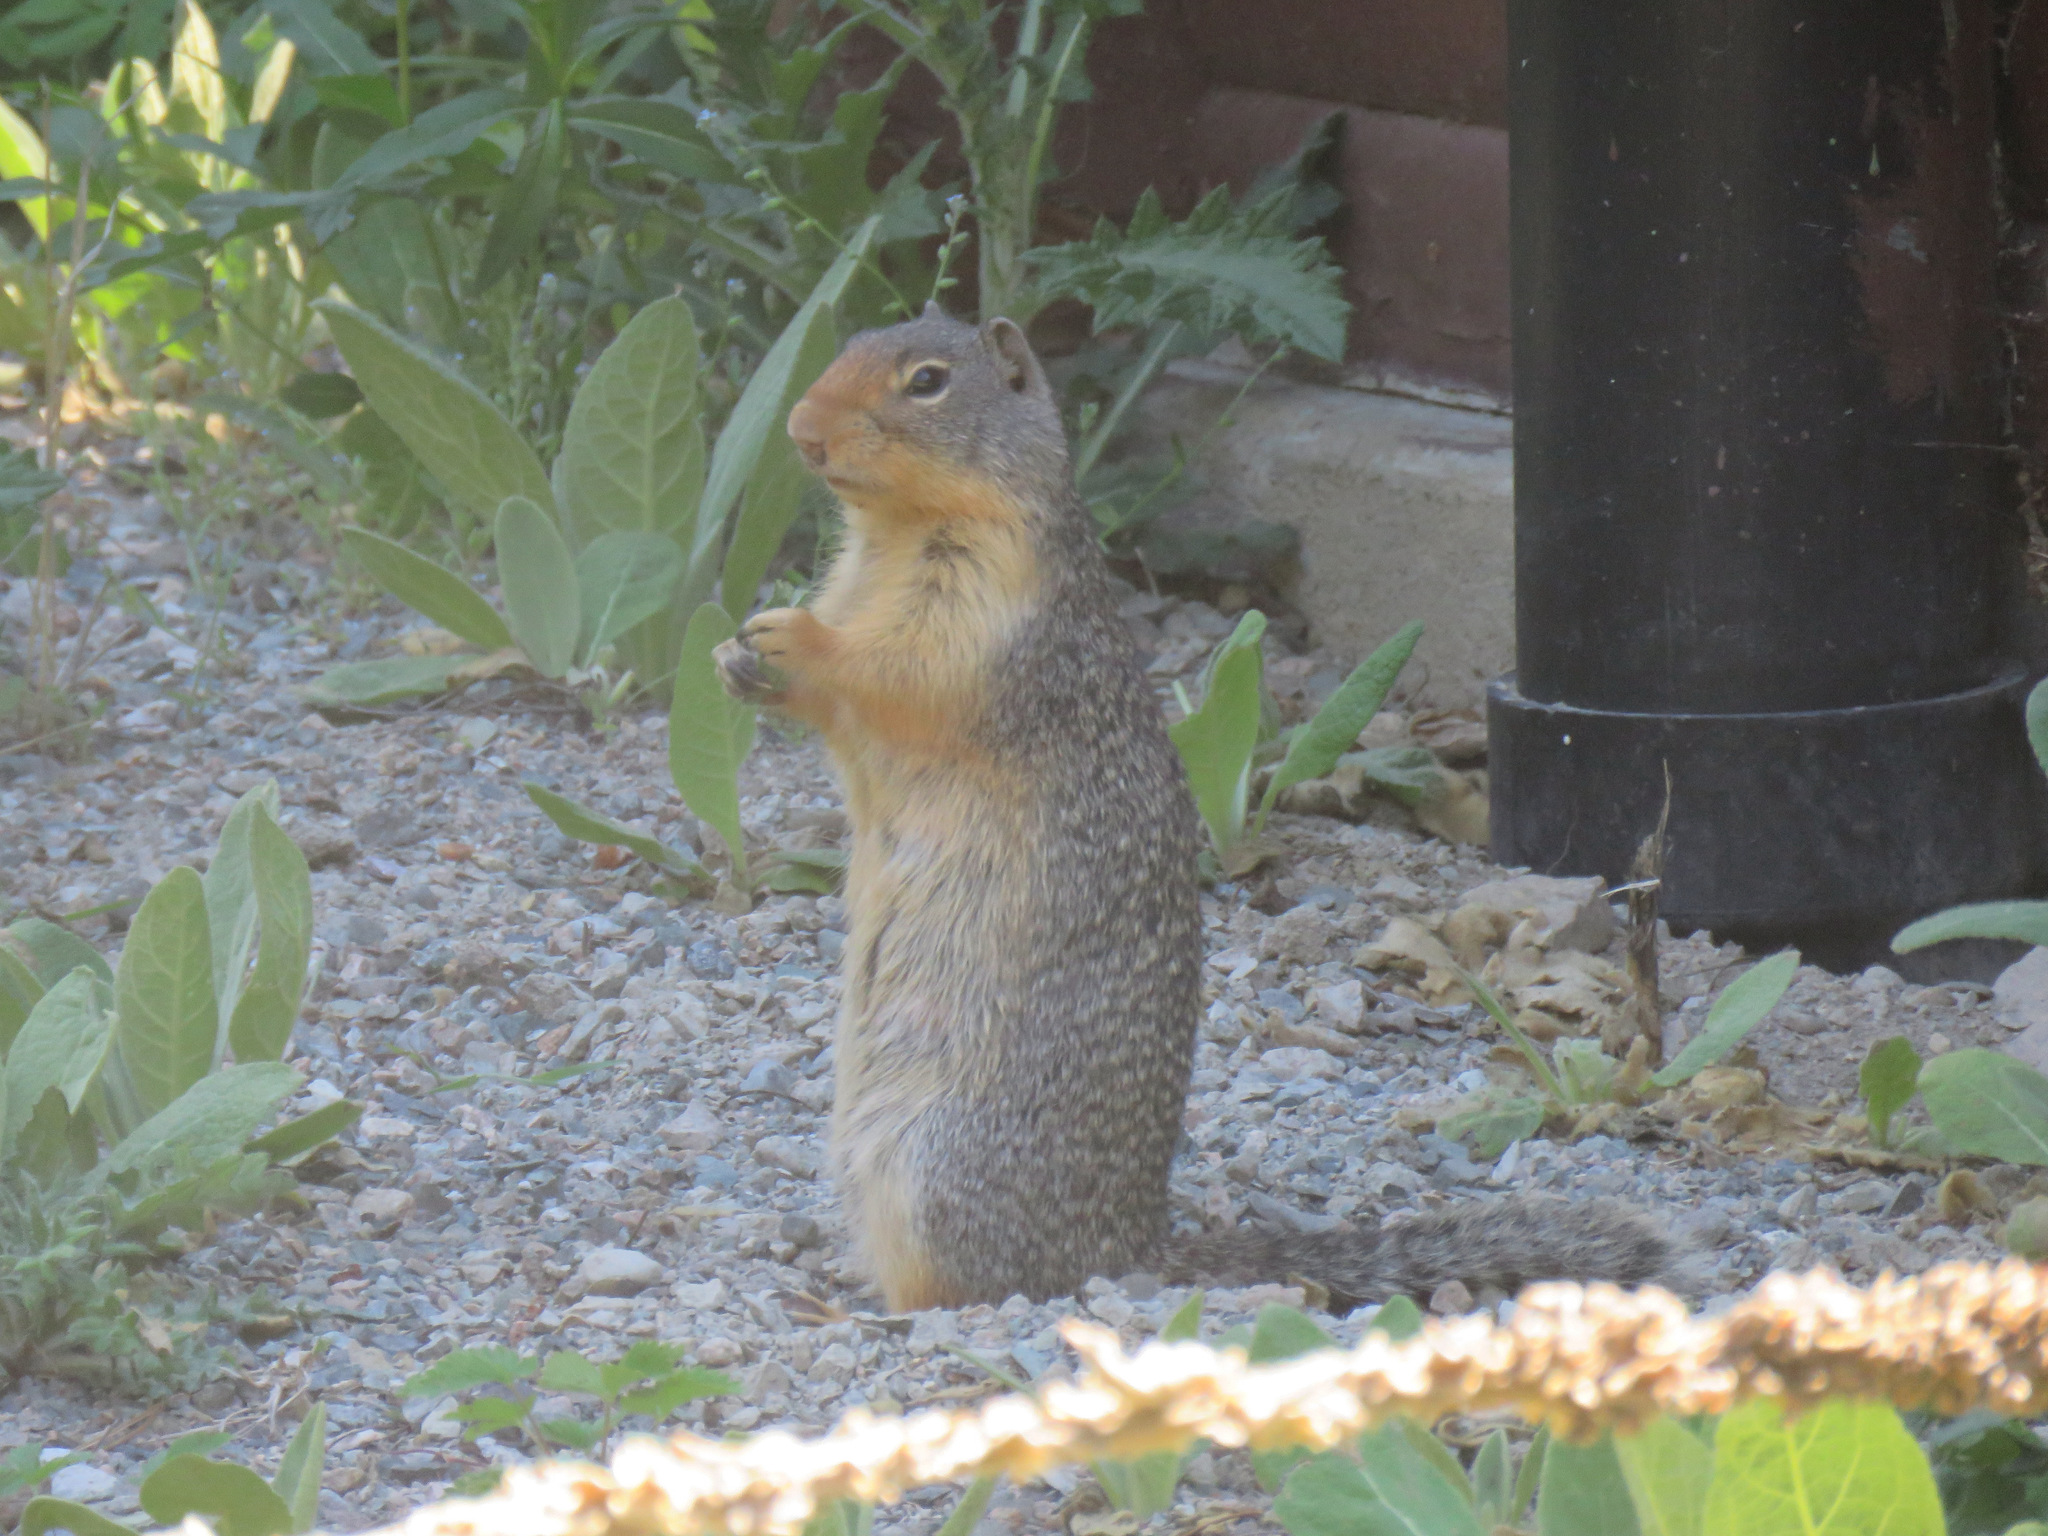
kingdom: Animalia
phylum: Chordata
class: Mammalia
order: Rodentia
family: Sciuridae
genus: Urocitellus
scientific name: Urocitellus columbianus
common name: Columbian ground squirrel
